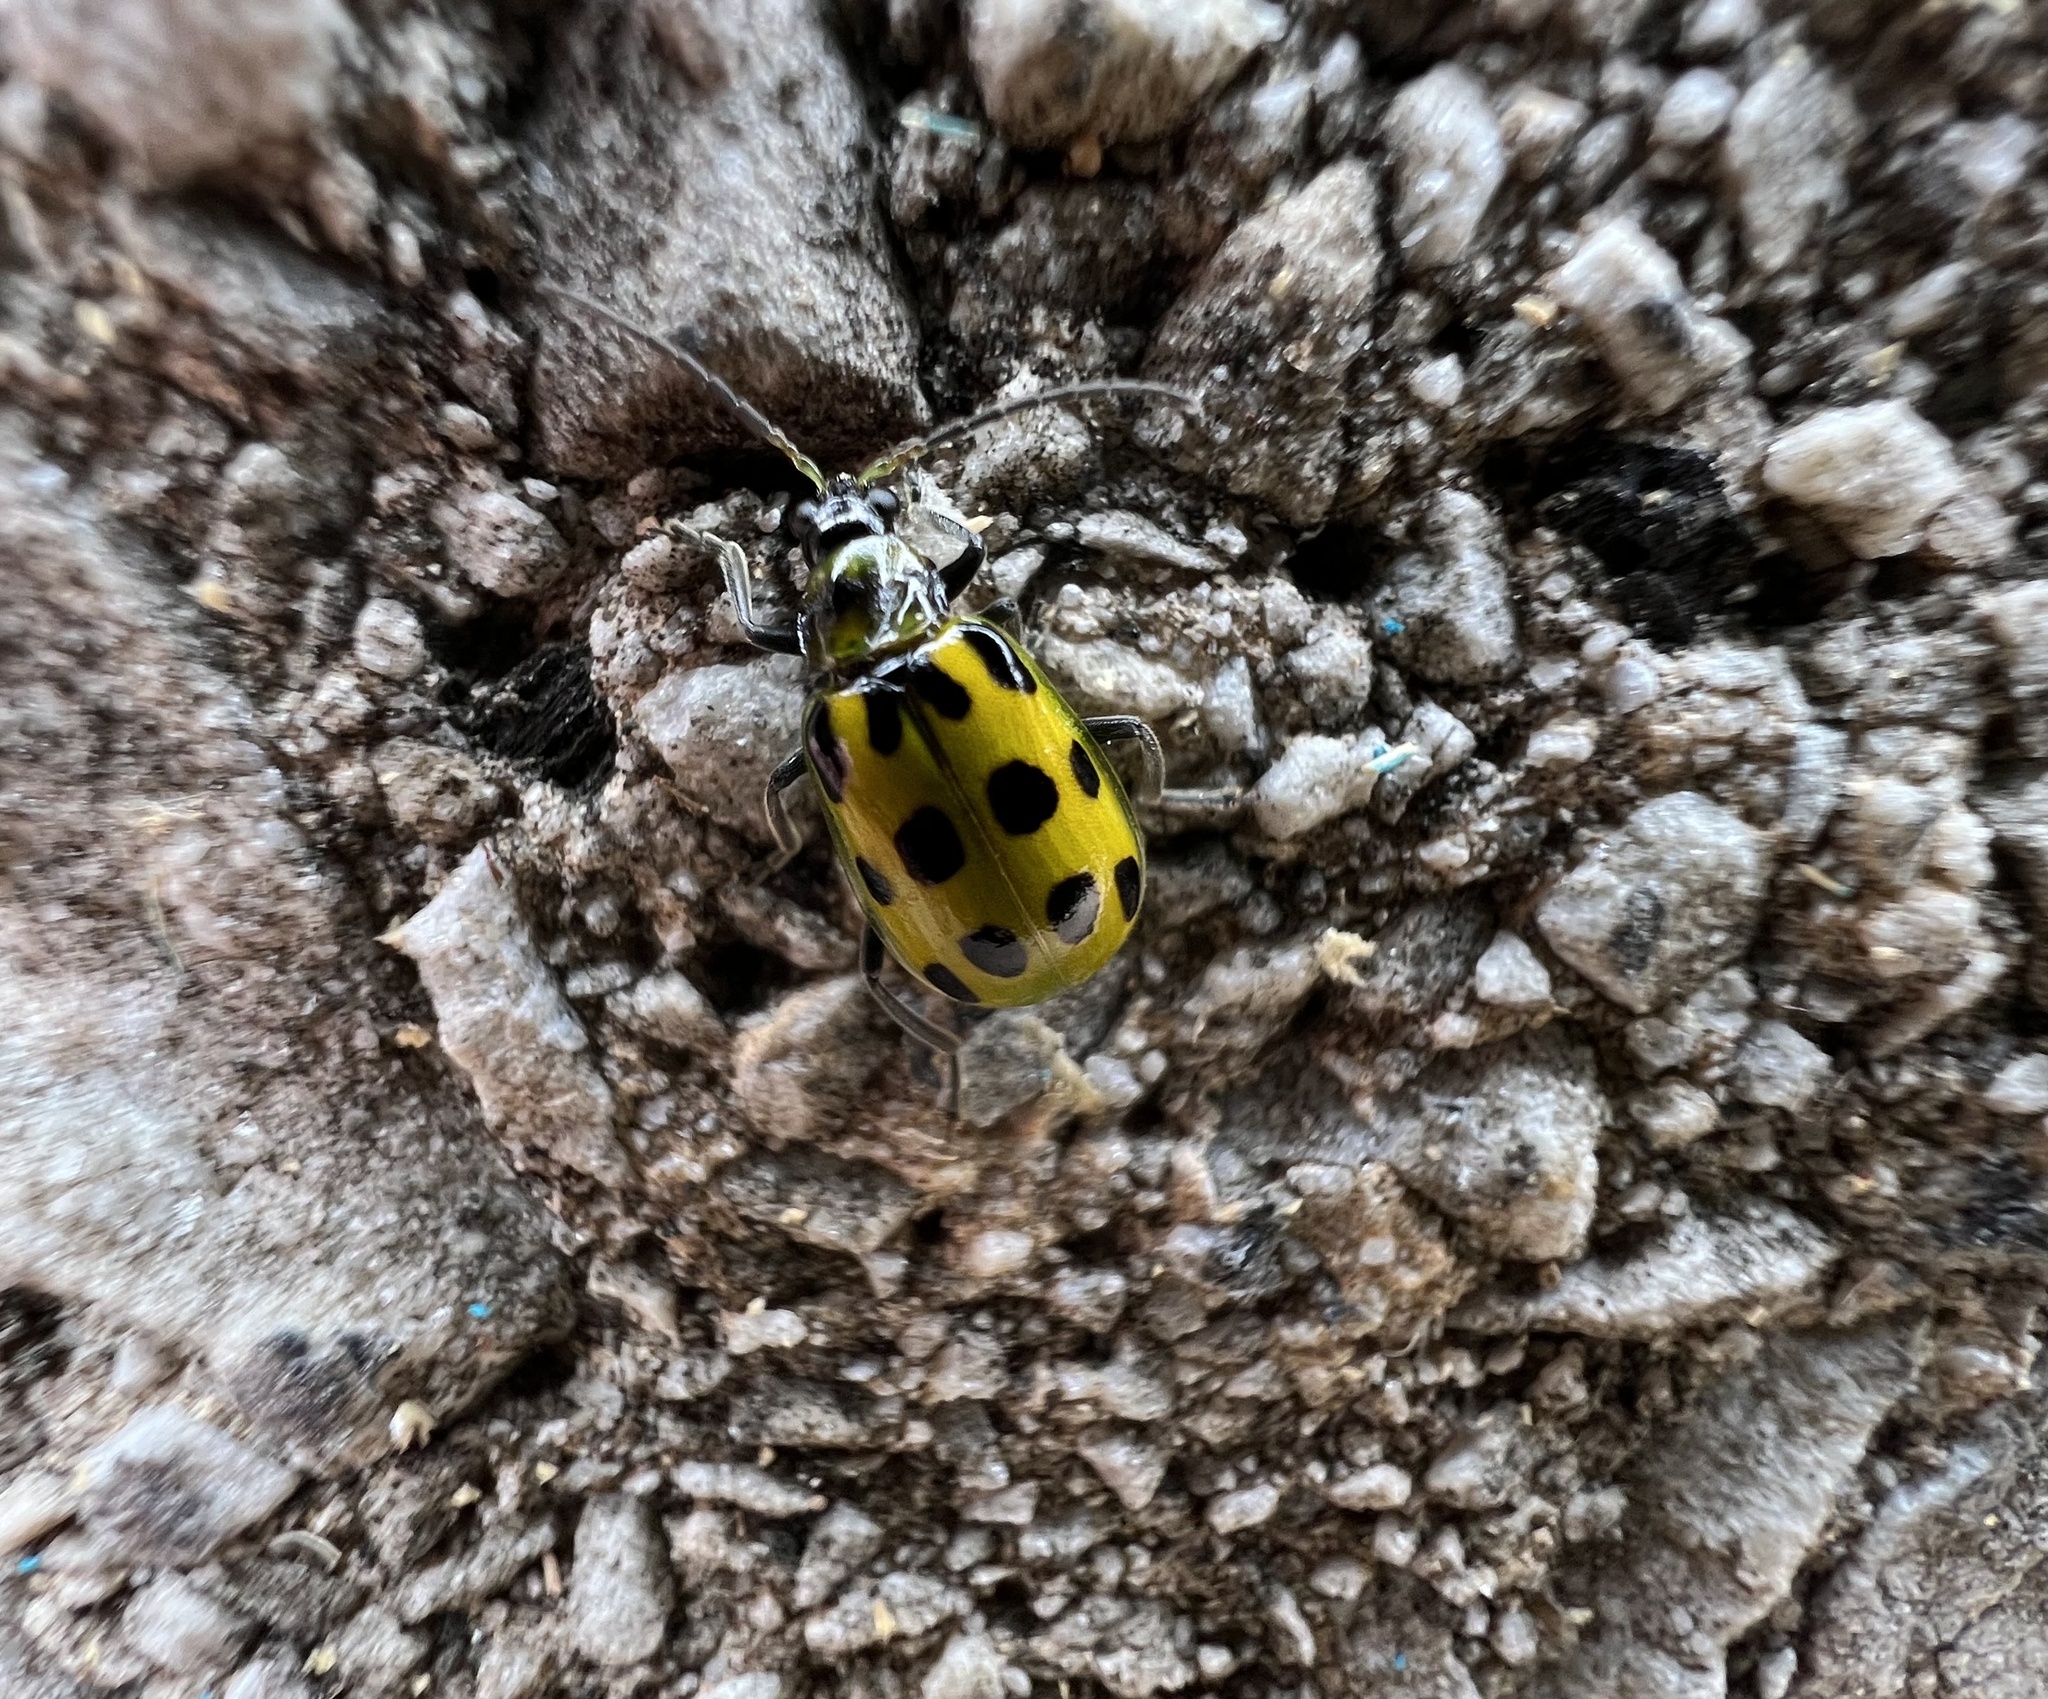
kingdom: Animalia
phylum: Arthropoda
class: Insecta
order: Coleoptera
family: Chrysomelidae
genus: Diabrotica
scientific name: Diabrotica undecimpunctata
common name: Spotted cucumber beetle
